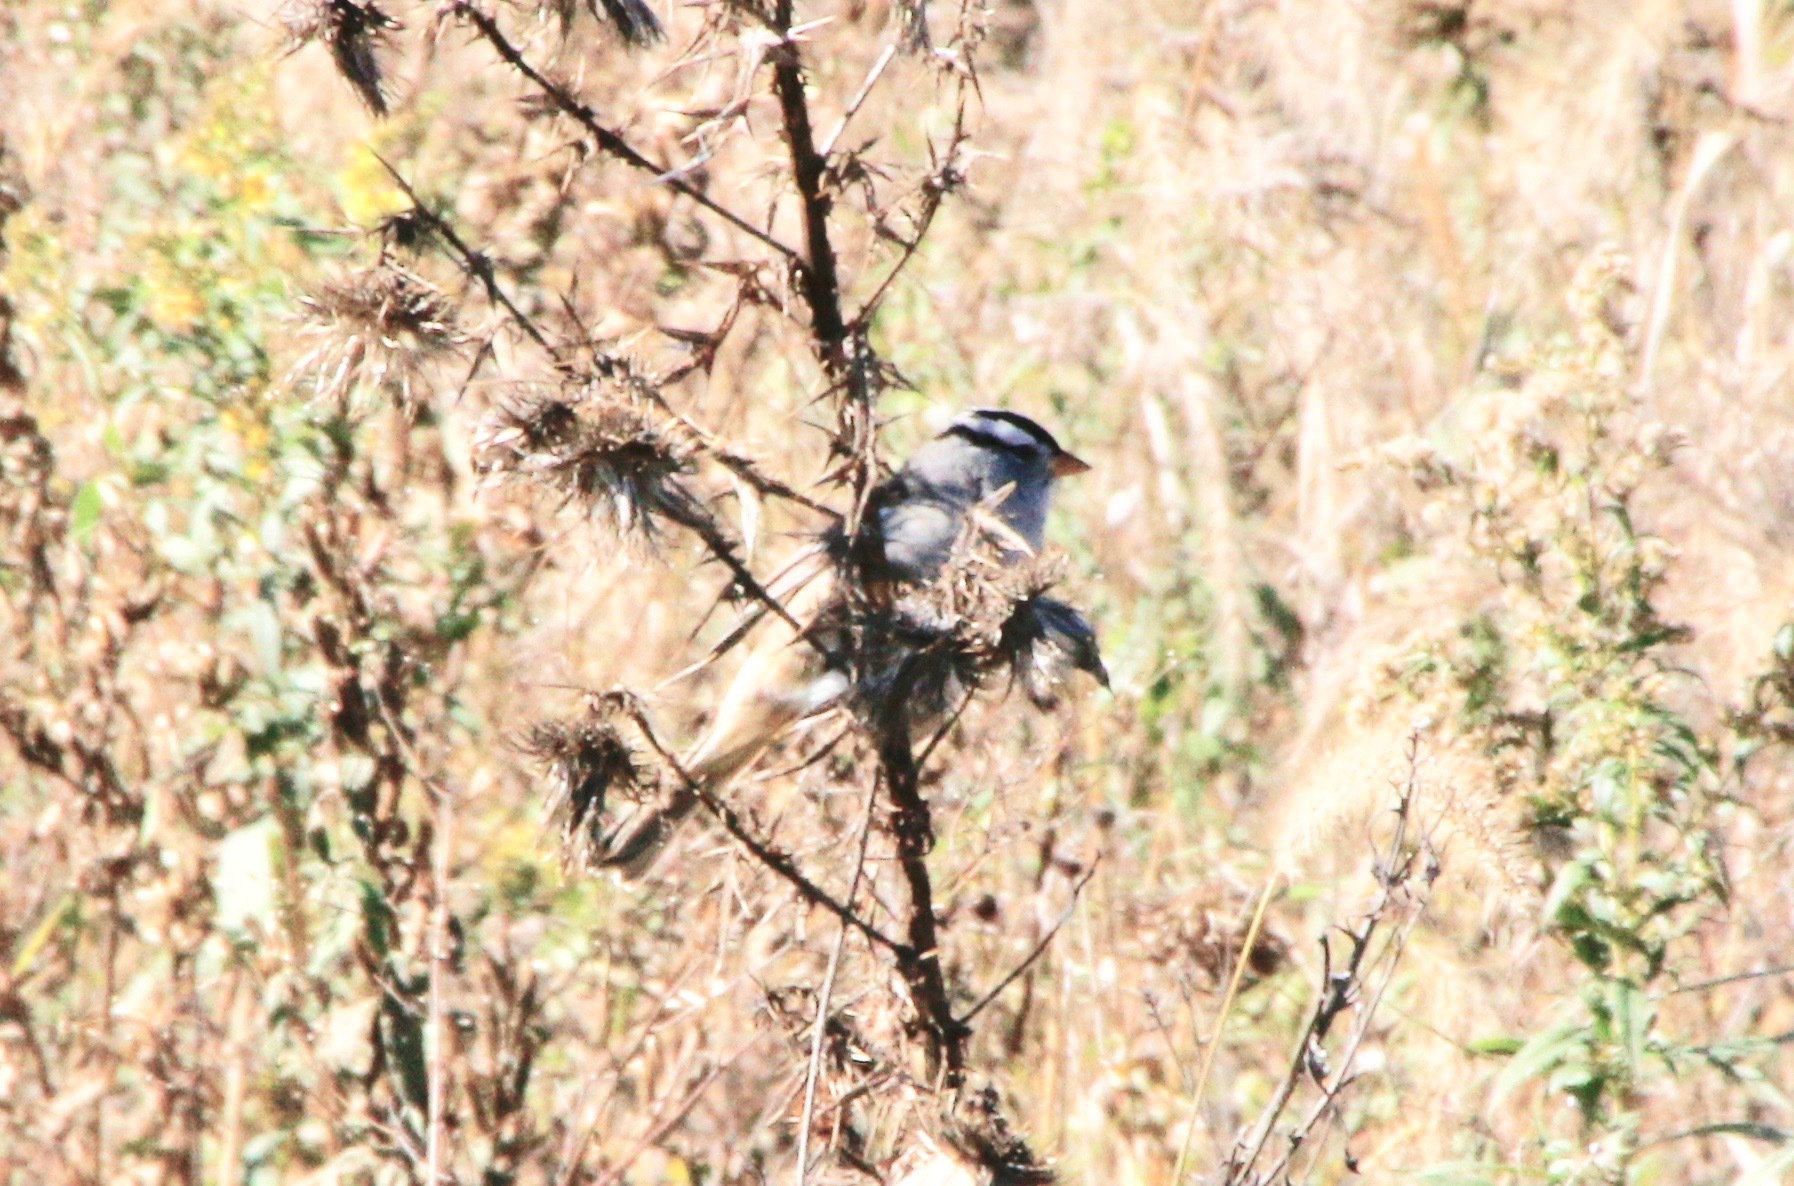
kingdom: Animalia
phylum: Chordata
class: Aves
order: Passeriformes
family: Passerellidae
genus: Zonotrichia
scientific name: Zonotrichia leucophrys
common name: White-crowned sparrow
